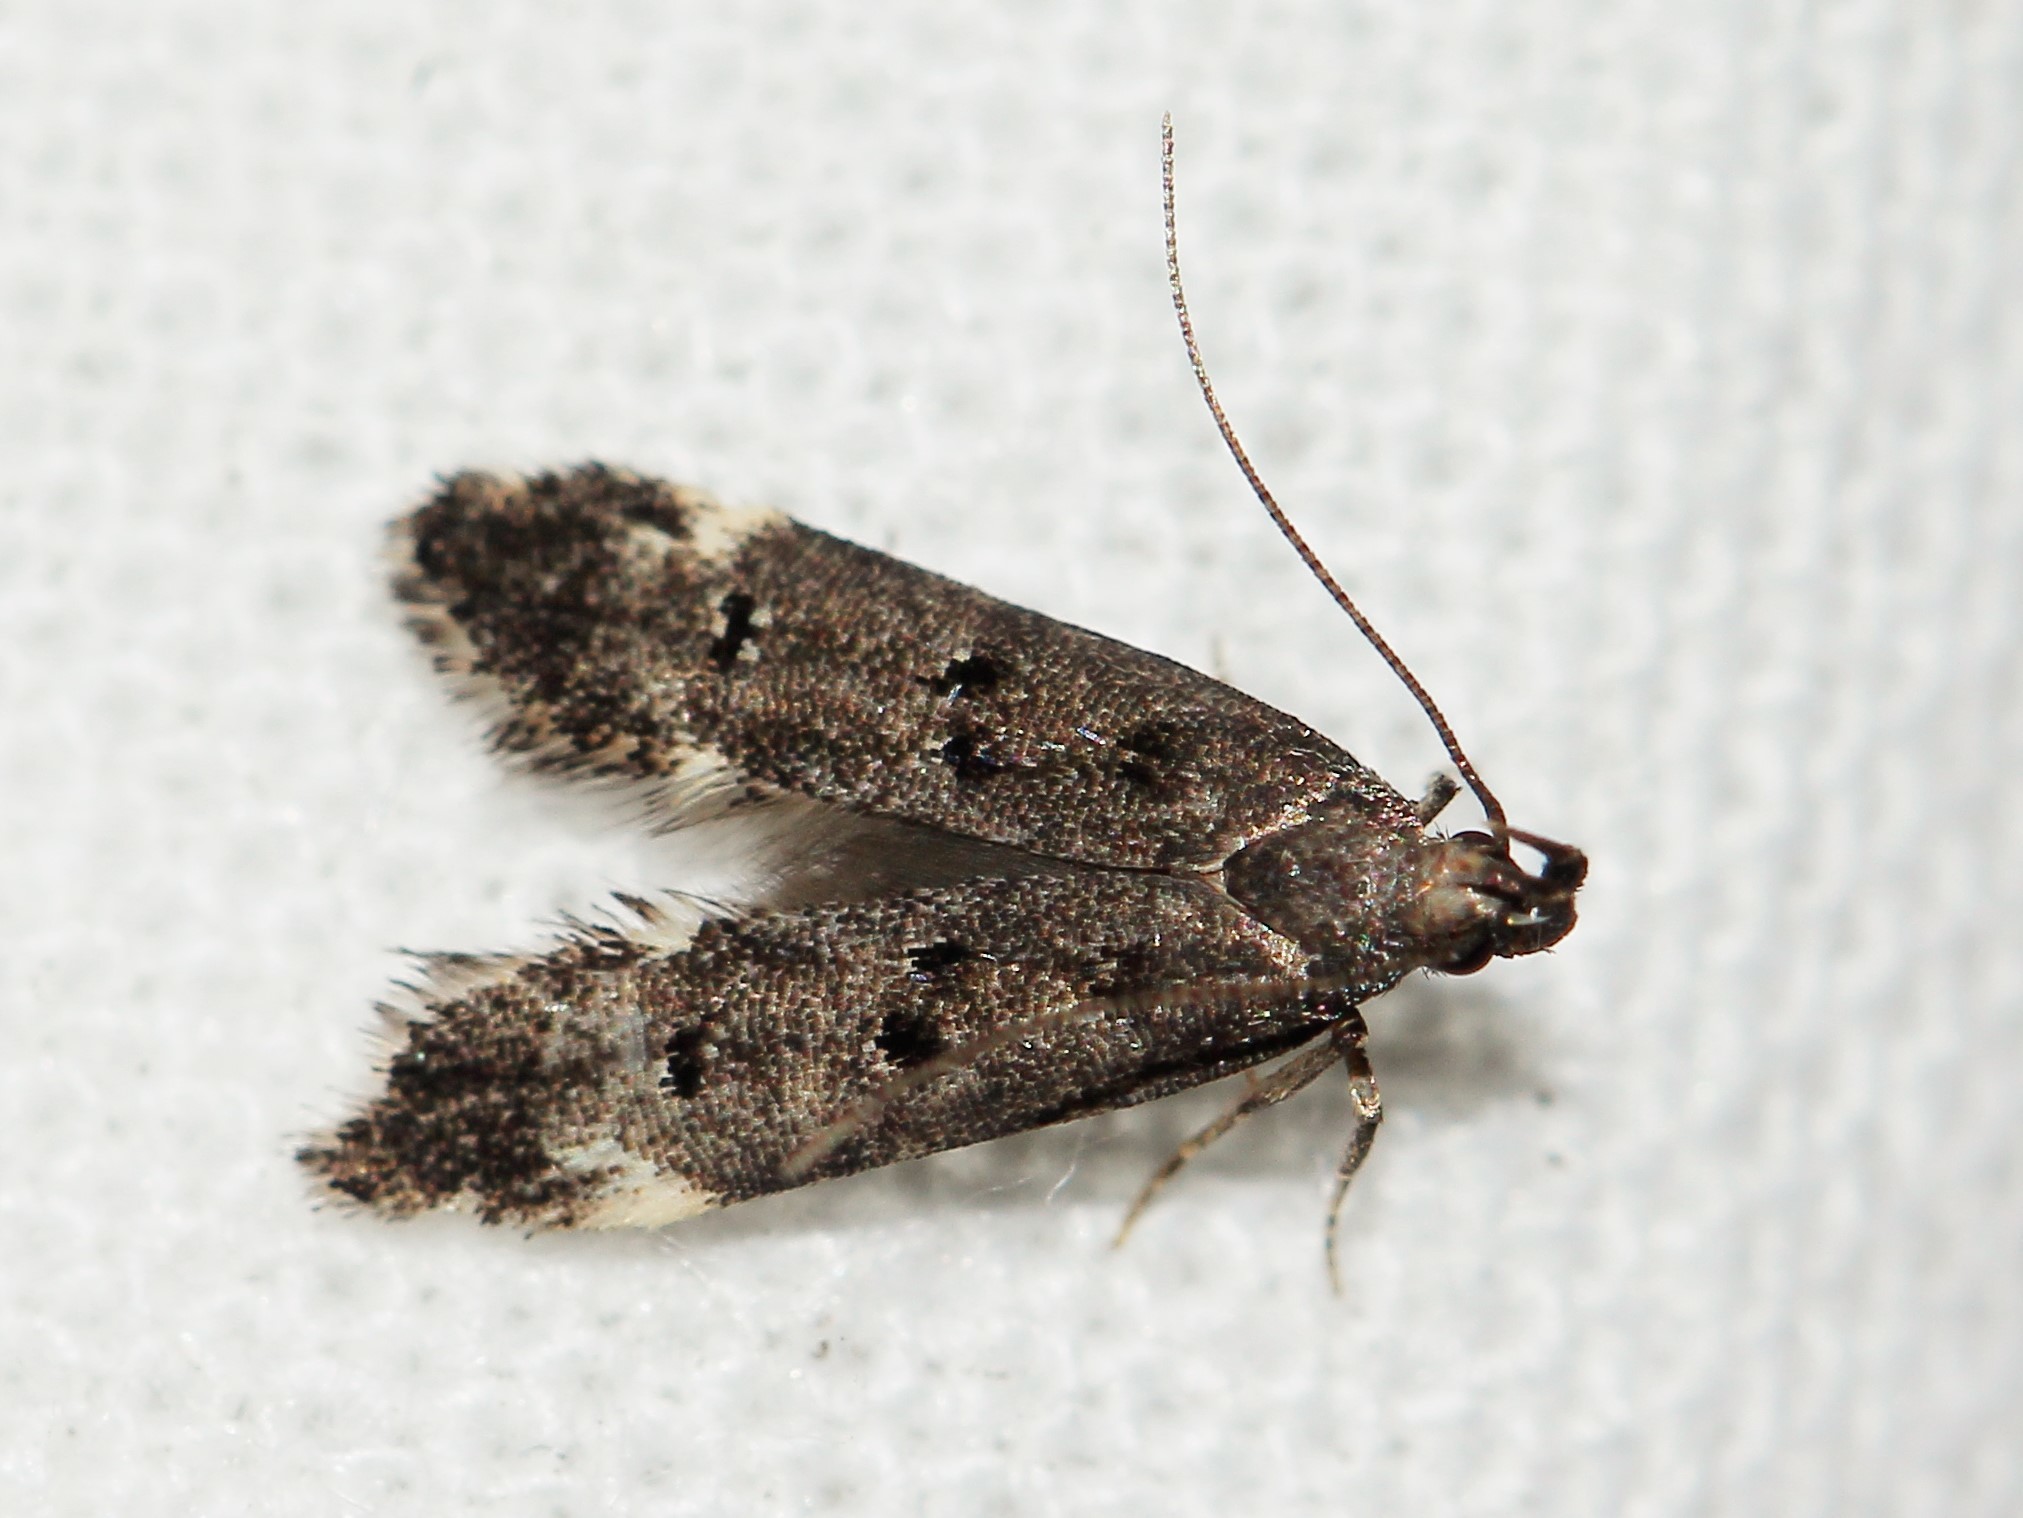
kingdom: Animalia
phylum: Arthropoda
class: Insecta
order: Lepidoptera
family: Gelechiidae
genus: Acanthophila
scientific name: Acanthophila alacella
